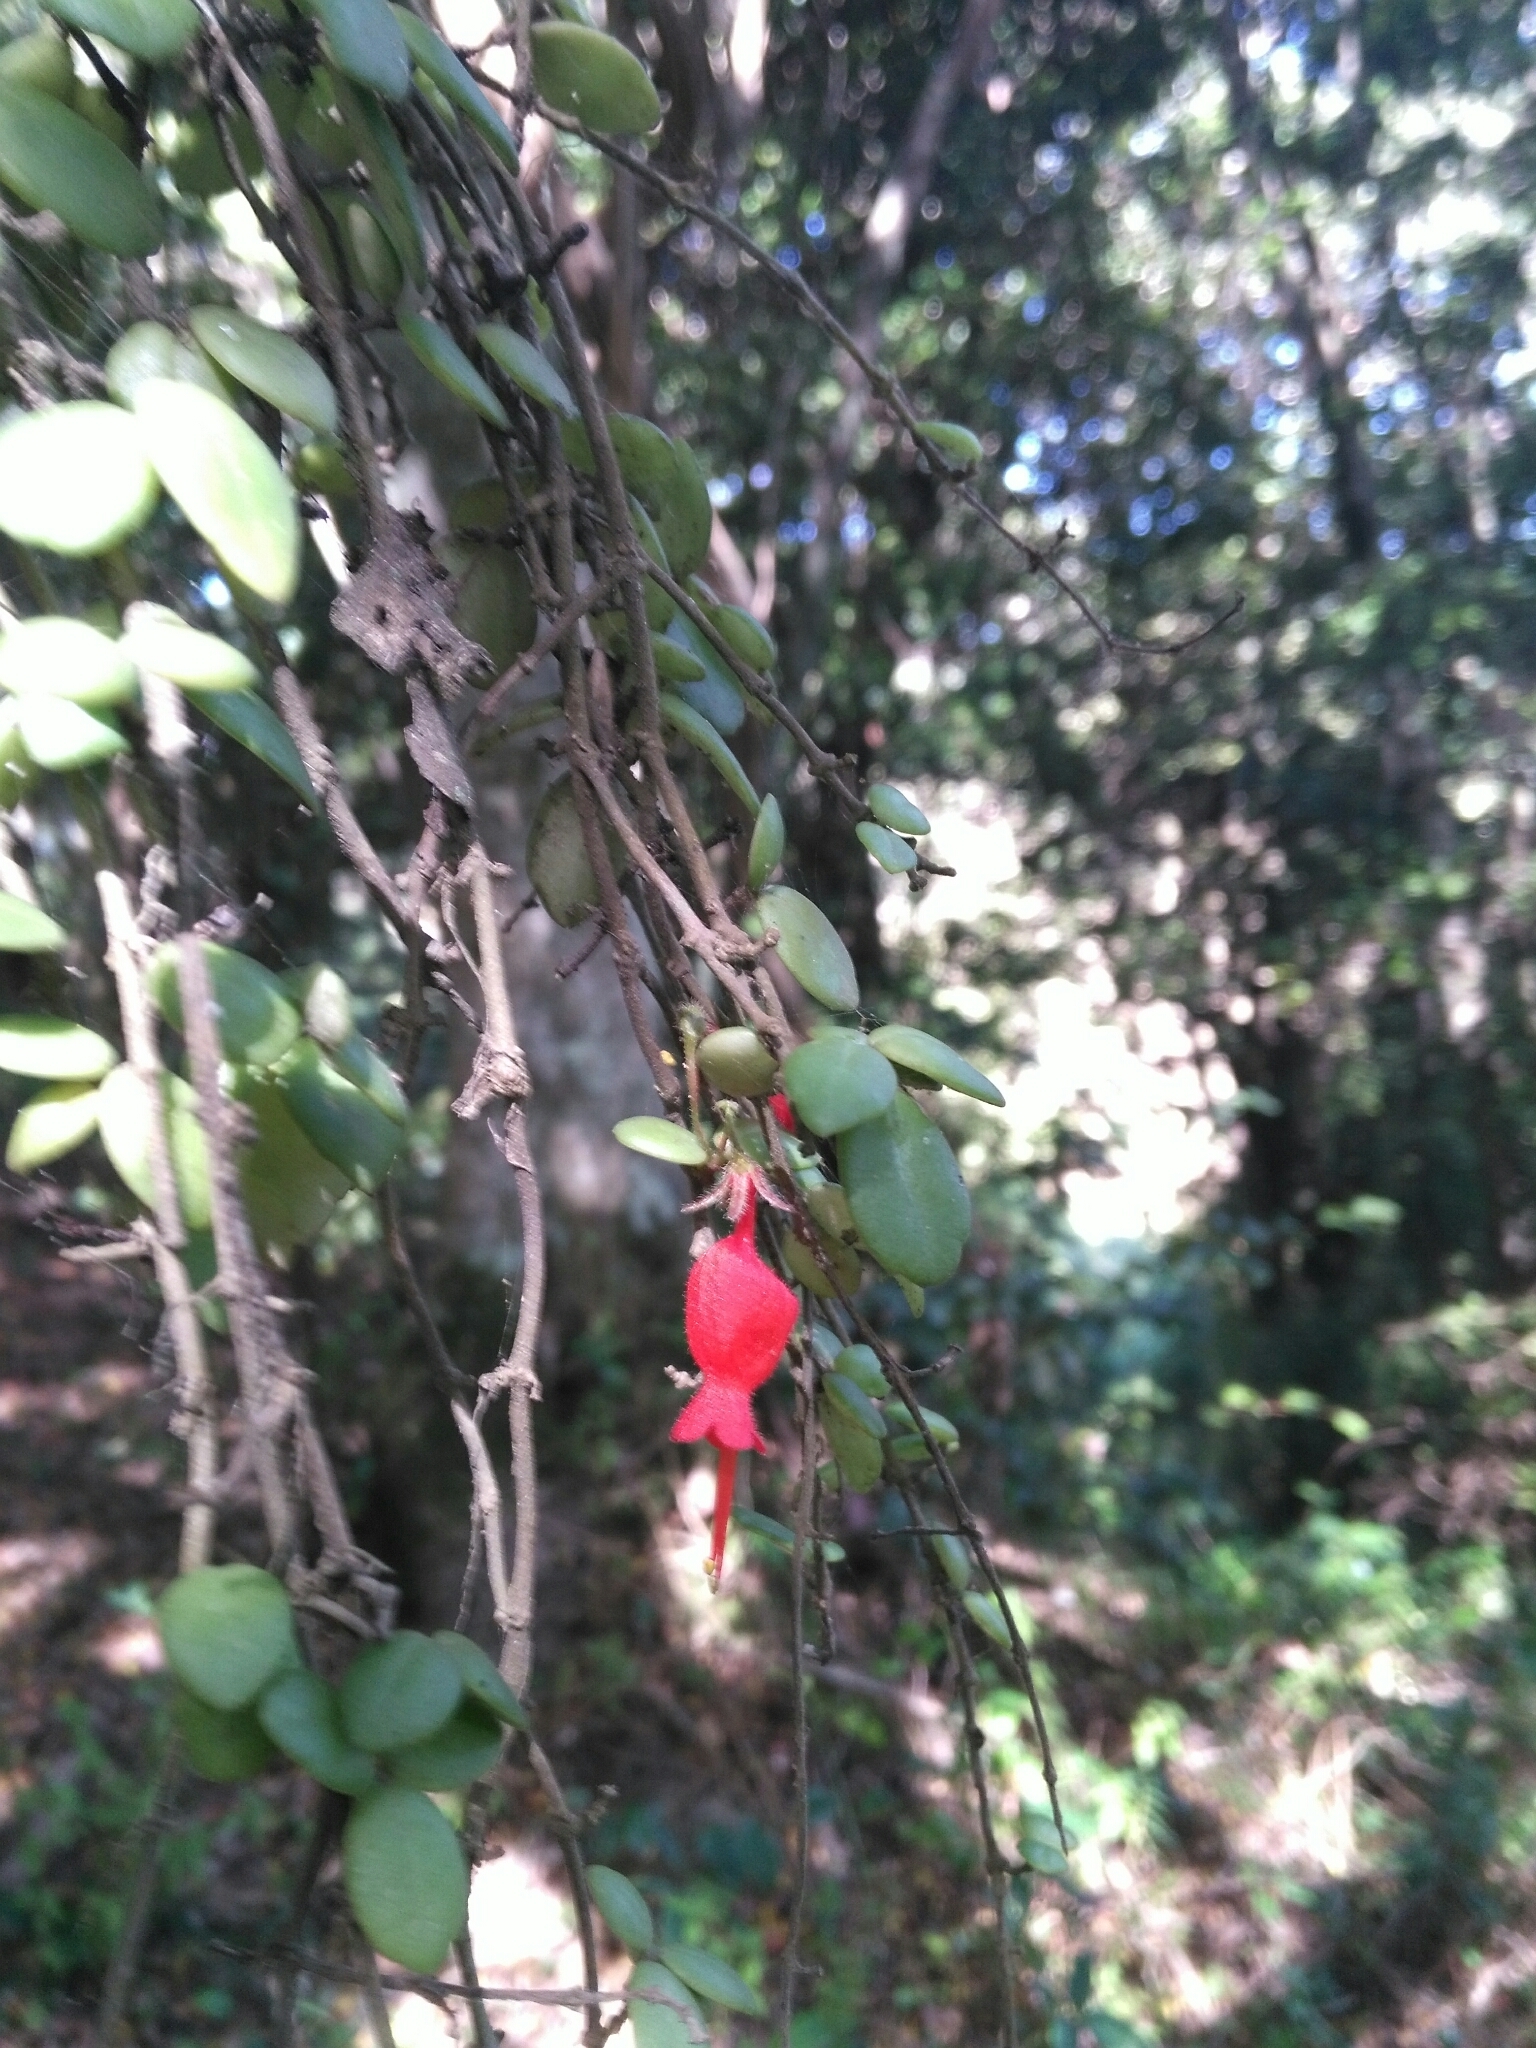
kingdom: Plantae
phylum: Tracheophyta
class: Magnoliopsida
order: Lamiales
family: Gesneriaceae
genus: Sarmienta
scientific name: Sarmienta scandens
